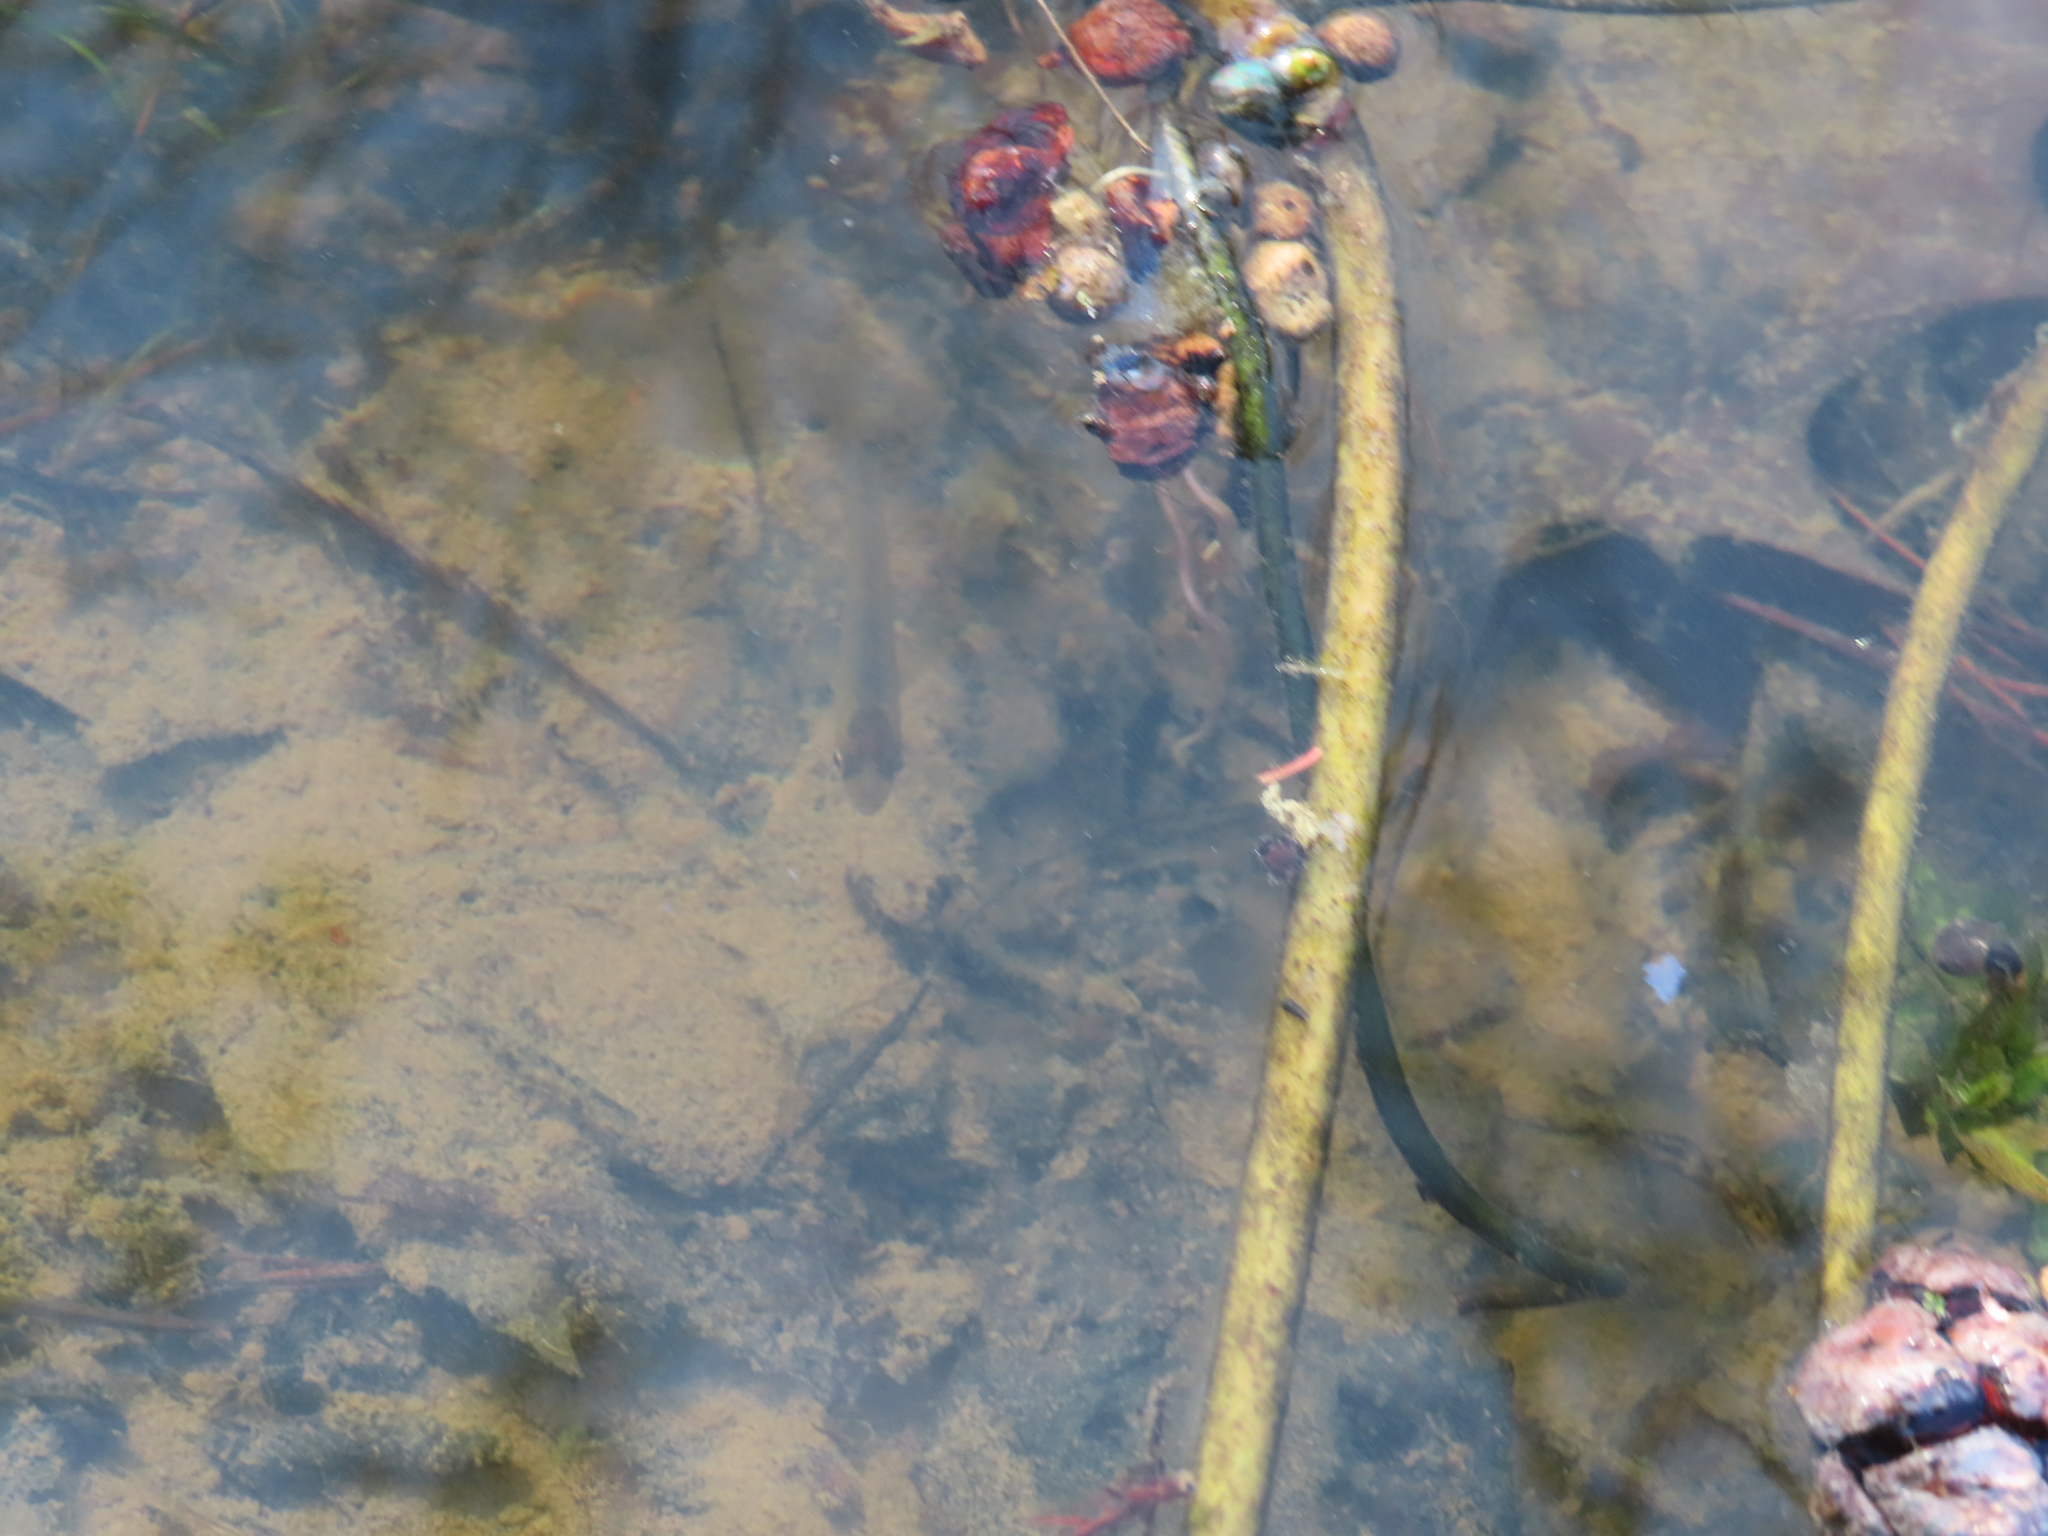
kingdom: Animalia
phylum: Chordata
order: Perciformes
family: Centrarchidae
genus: Lepomis
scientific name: Lepomis
